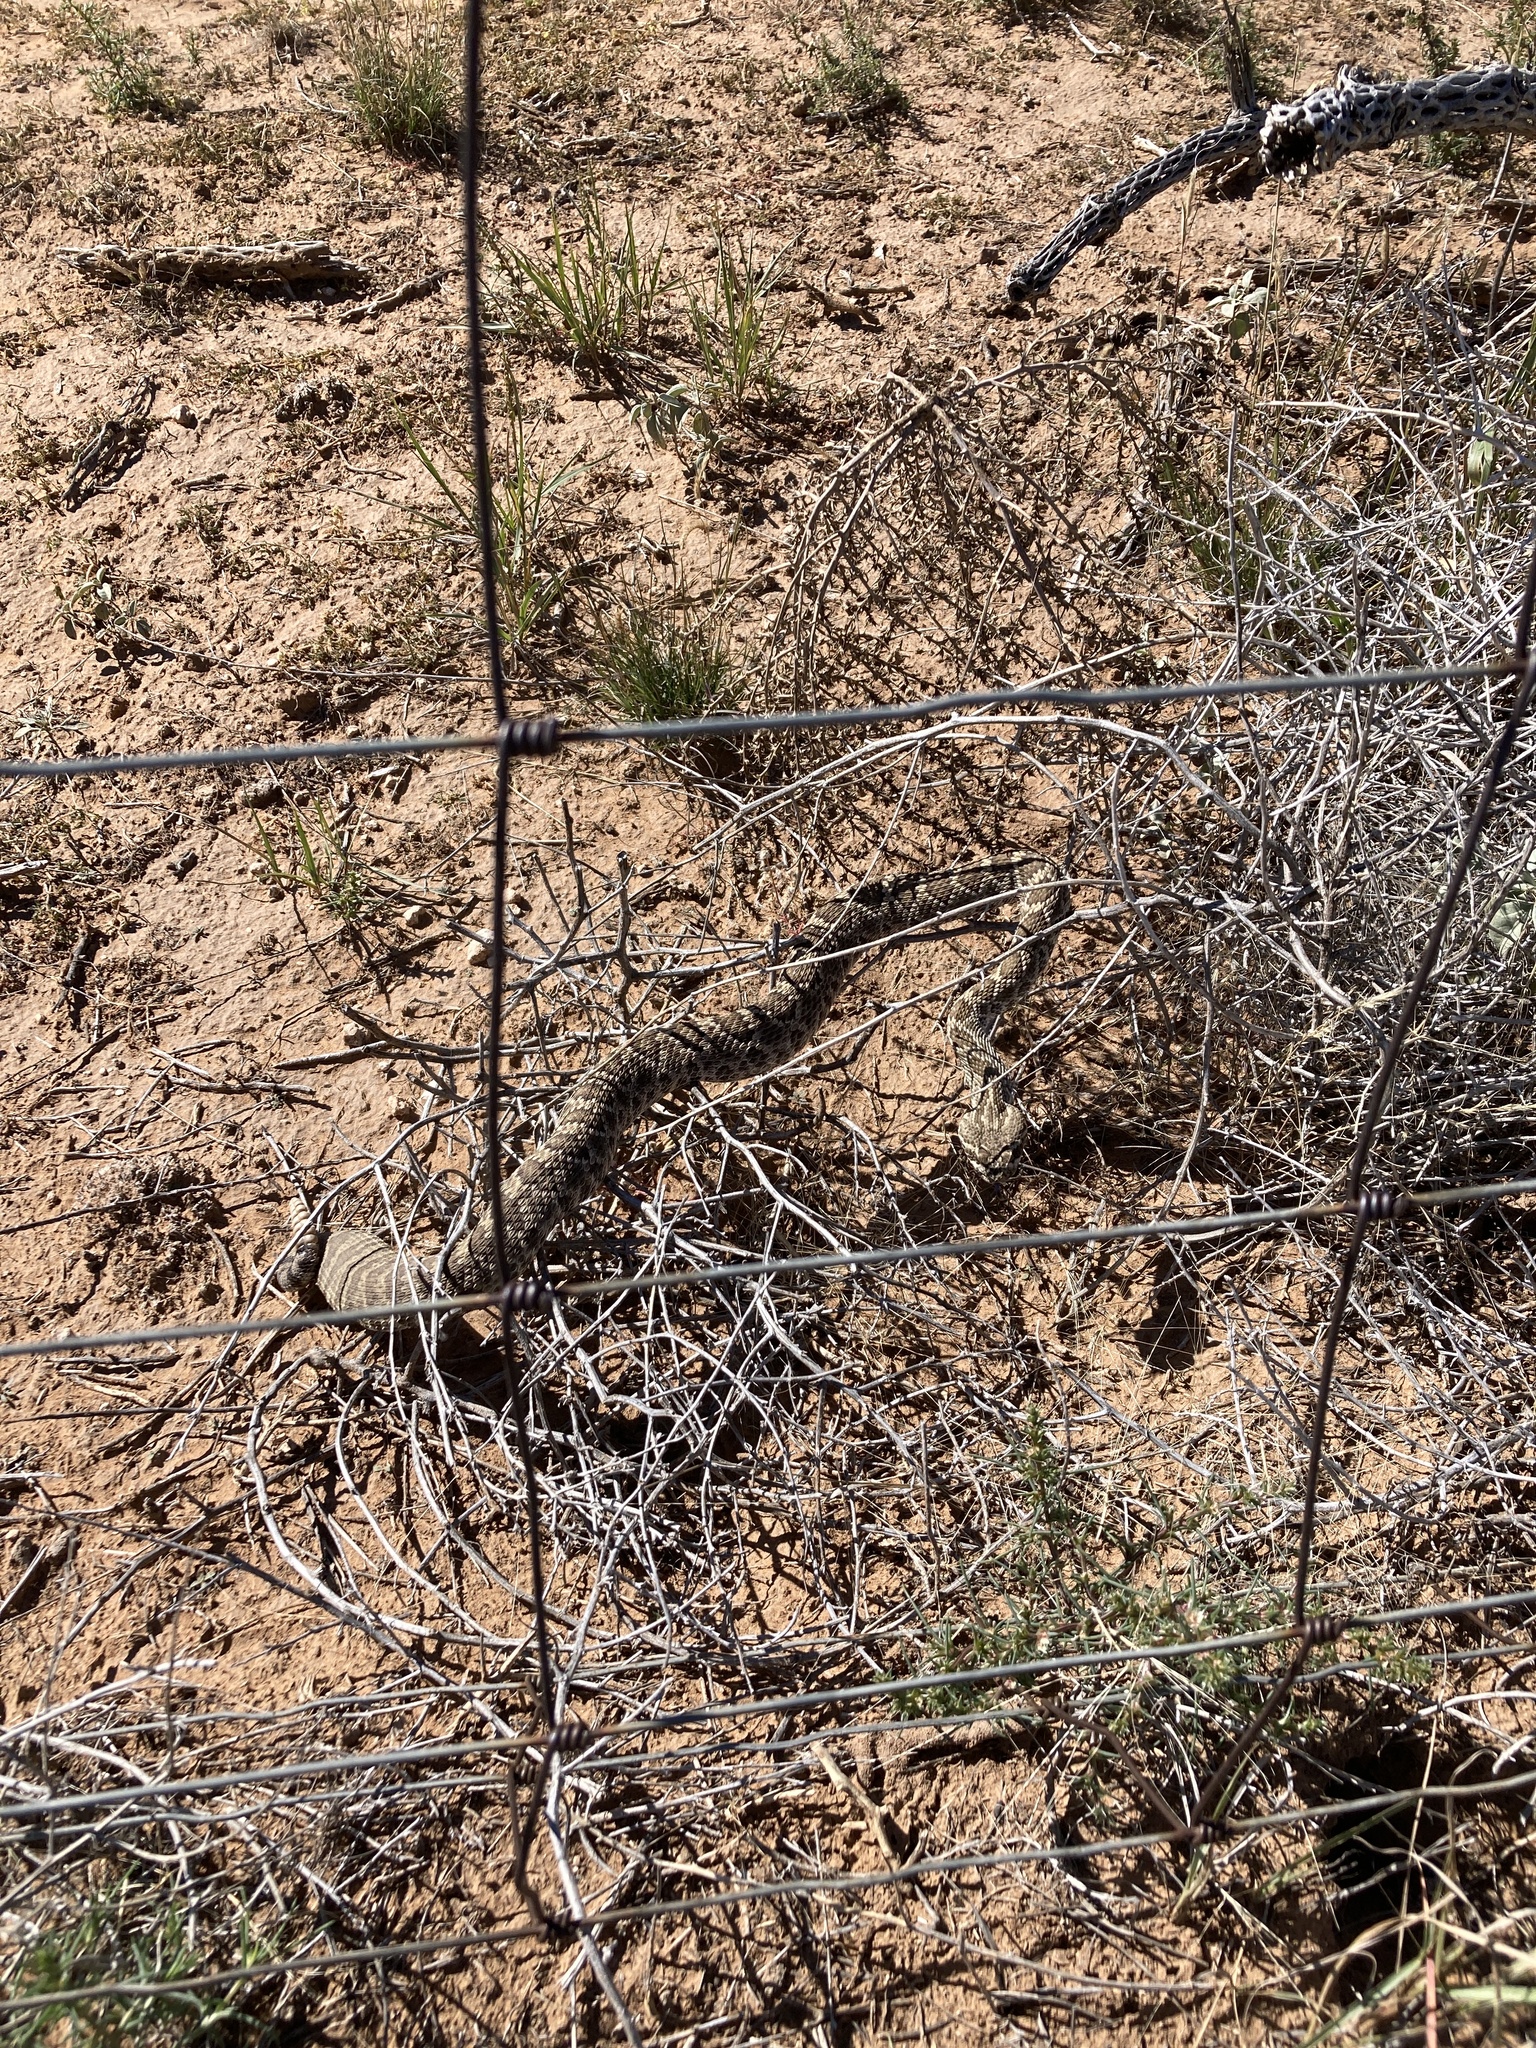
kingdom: Animalia
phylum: Chordata
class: Squamata
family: Viperidae
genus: Crotalus
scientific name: Crotalus scutulatus
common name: Scutulatus
